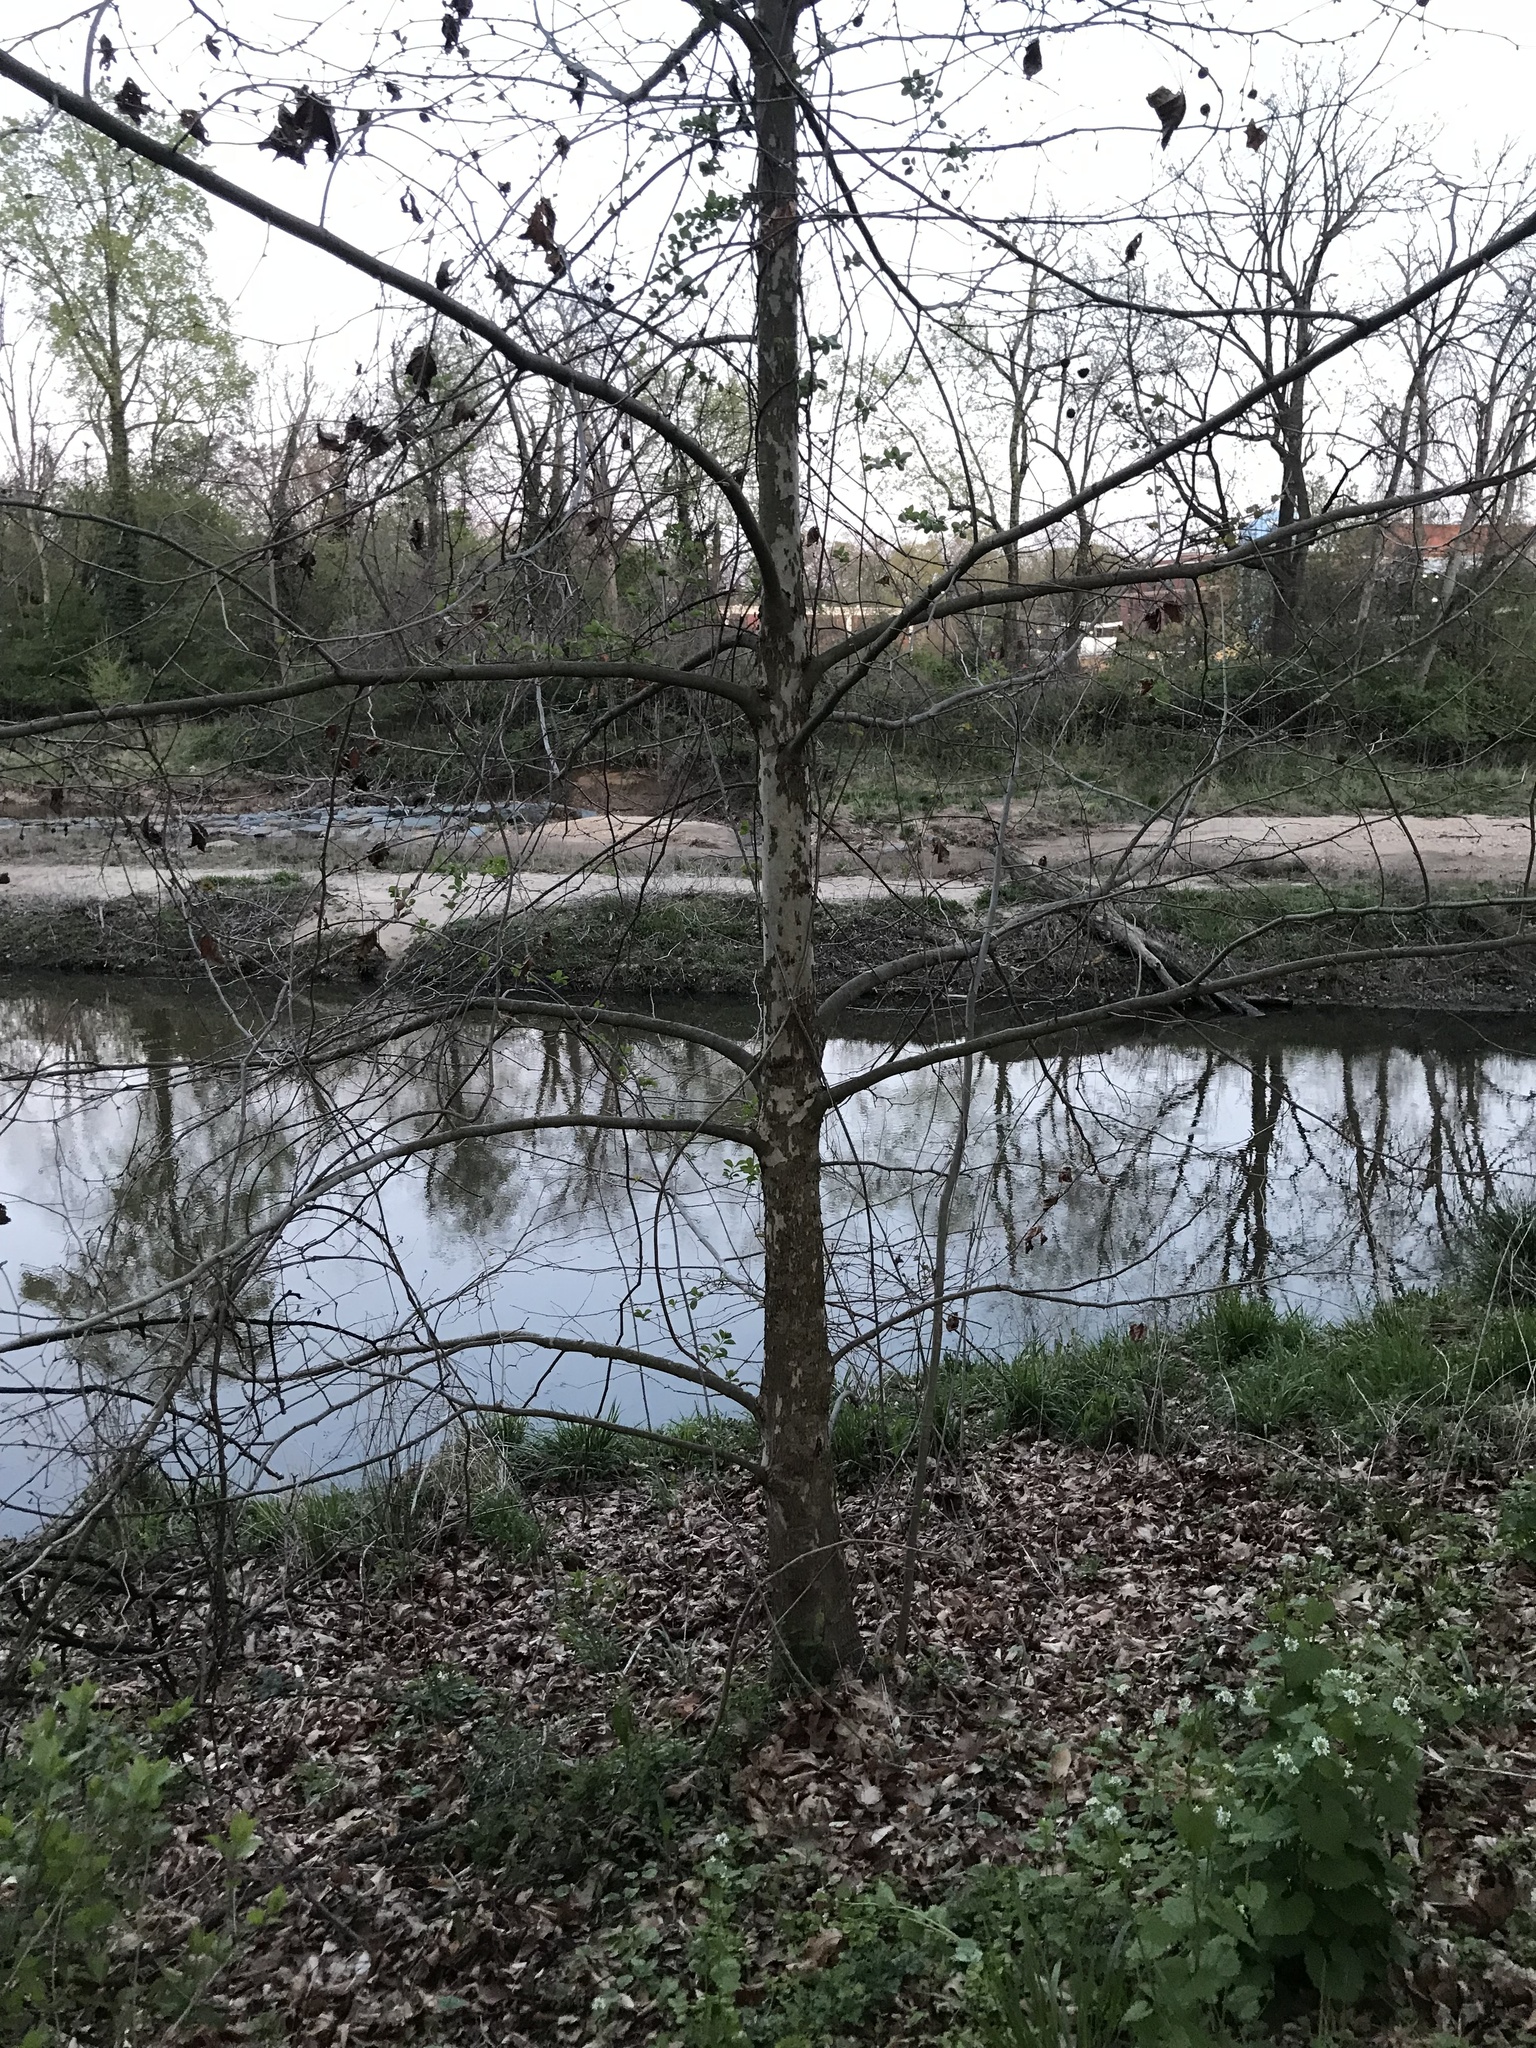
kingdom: Plantae
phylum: Tracheophyta
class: Magnoliopsida
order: Proteales
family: Platanaceae
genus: Platanus
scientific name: Platanus occidentalis
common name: American sycamore
